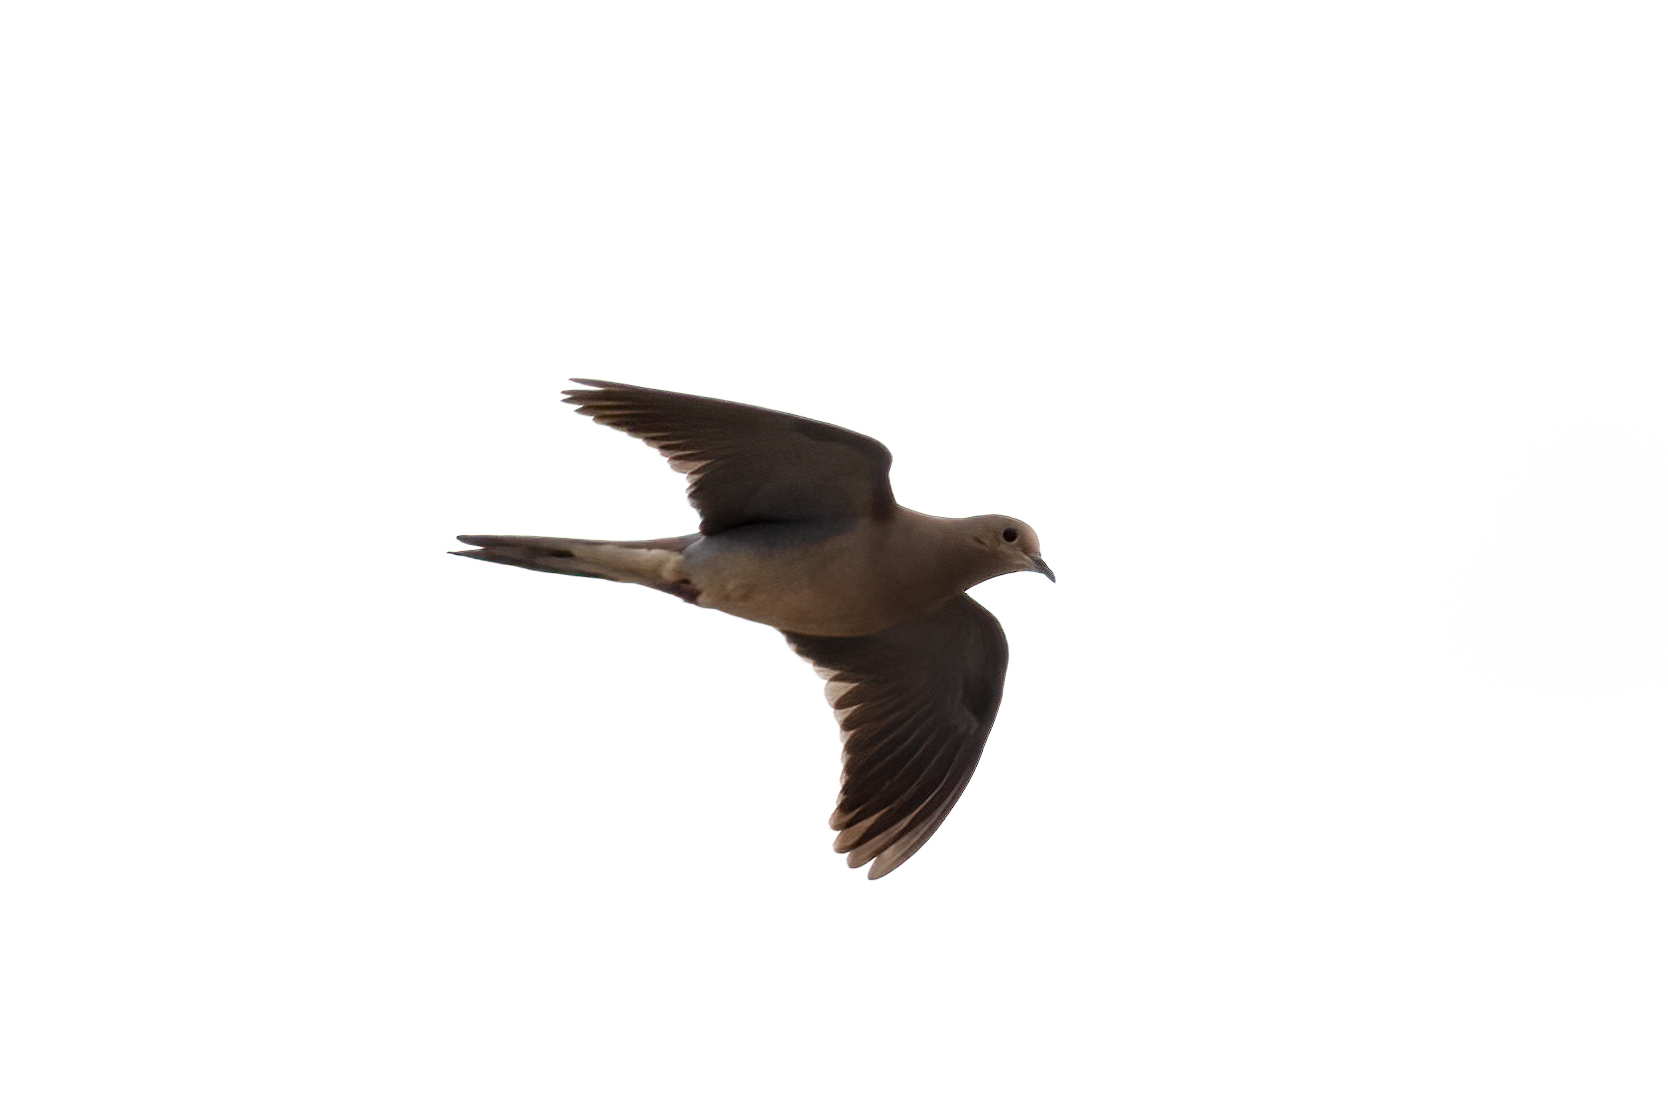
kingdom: Animalia
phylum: Chordata
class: Aves
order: Columbiformes
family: Columbidae
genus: Zenaida
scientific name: Zenaida macroura
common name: Mourning dove
